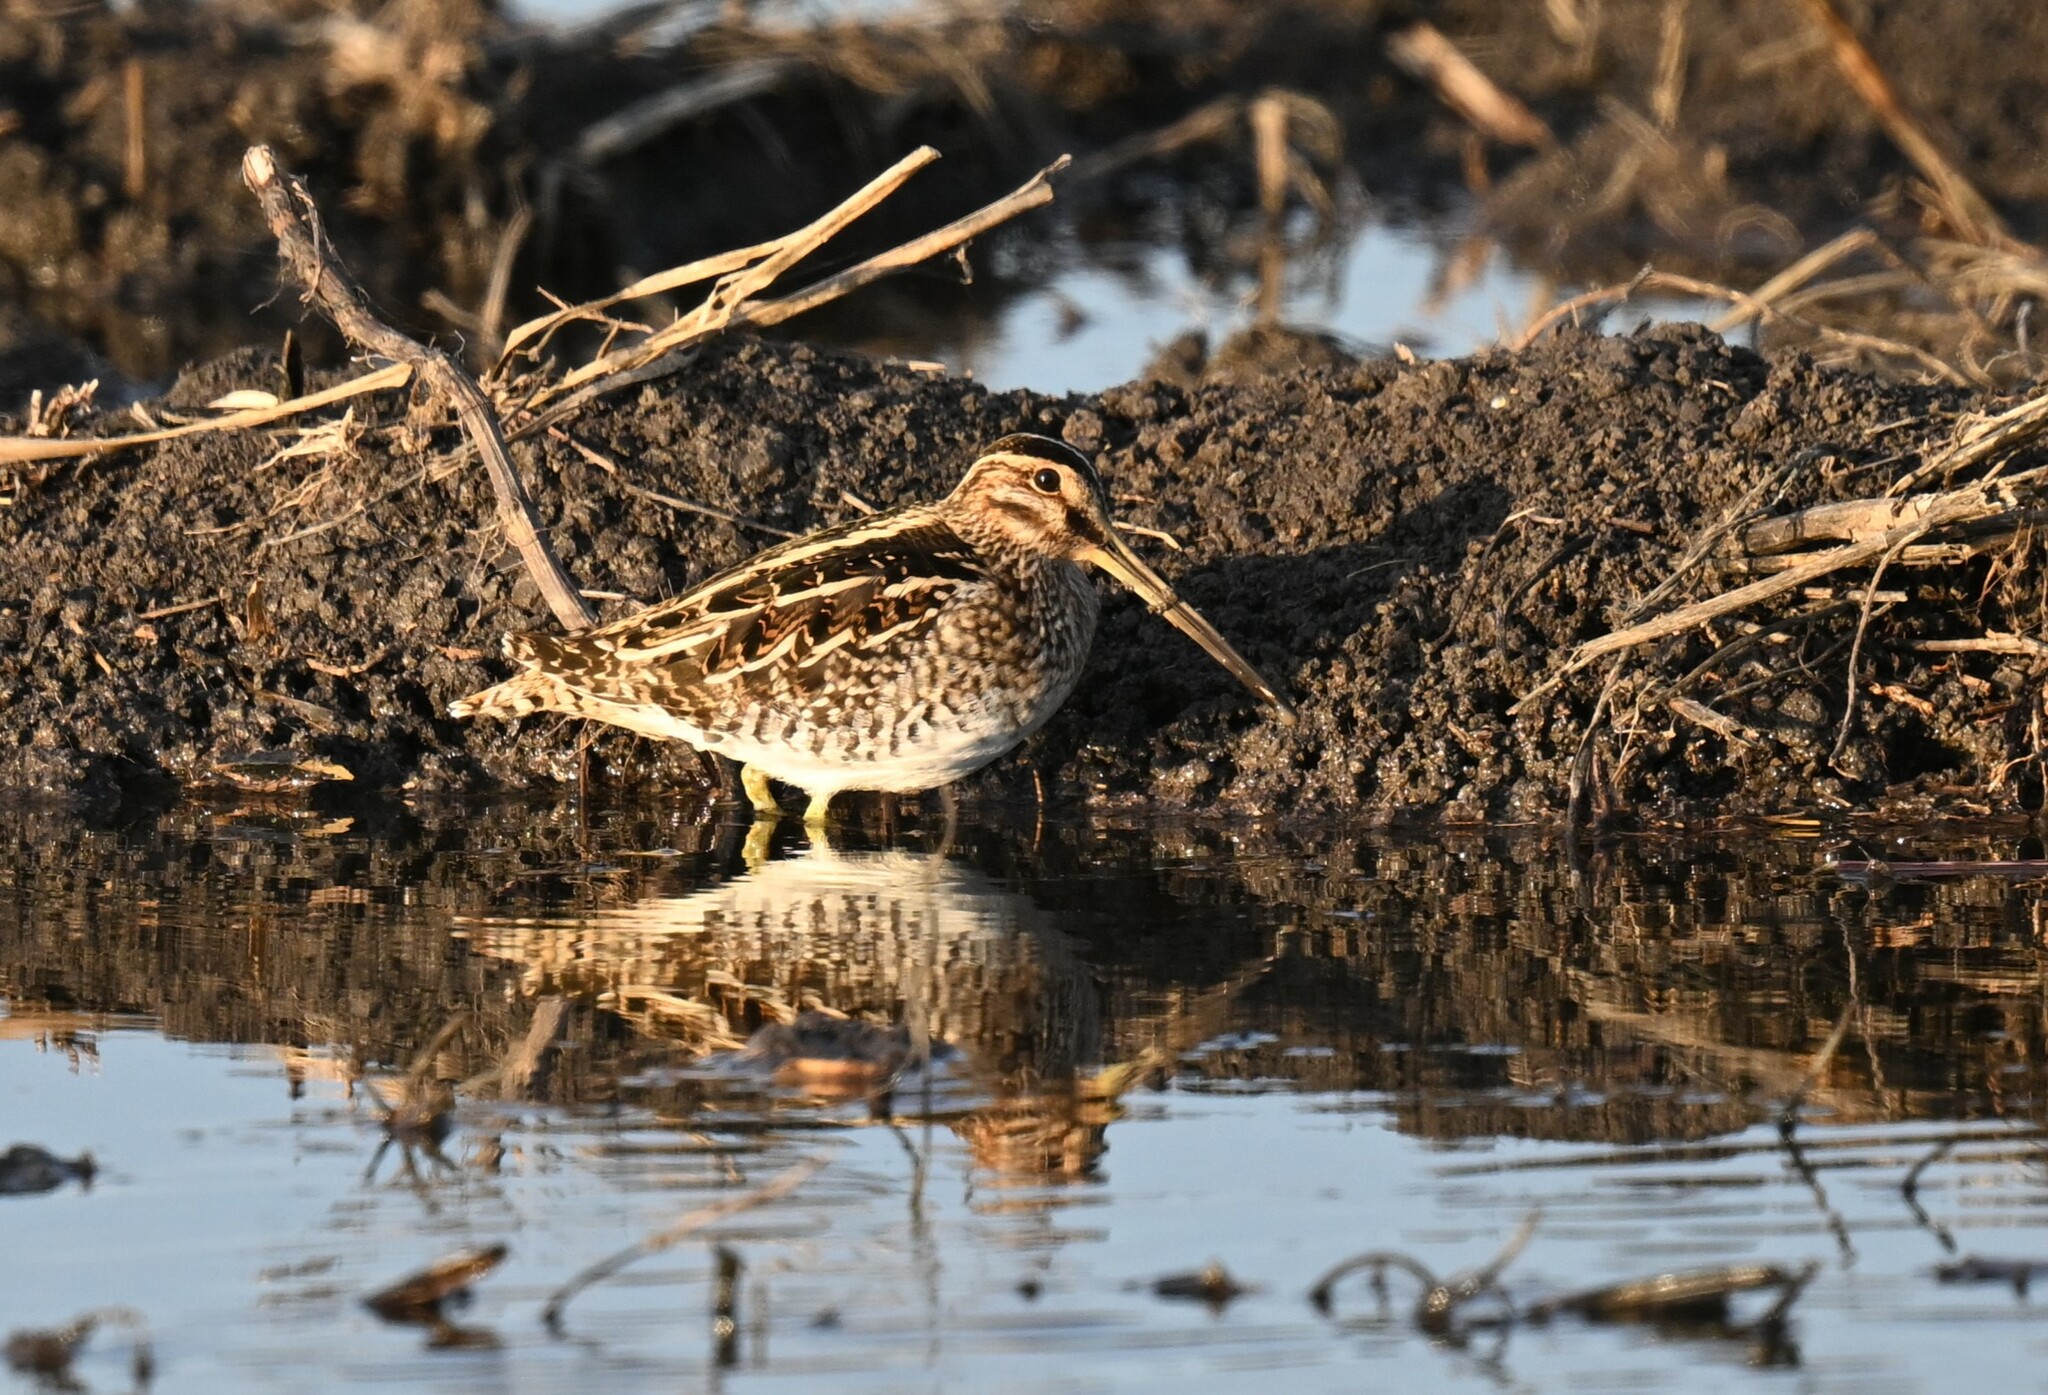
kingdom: Animalia
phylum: Chordata
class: Aves
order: Charadriiformes
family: Scolopacidae
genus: Gallinago
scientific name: Gallinago delicata
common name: Wilson's snipe
